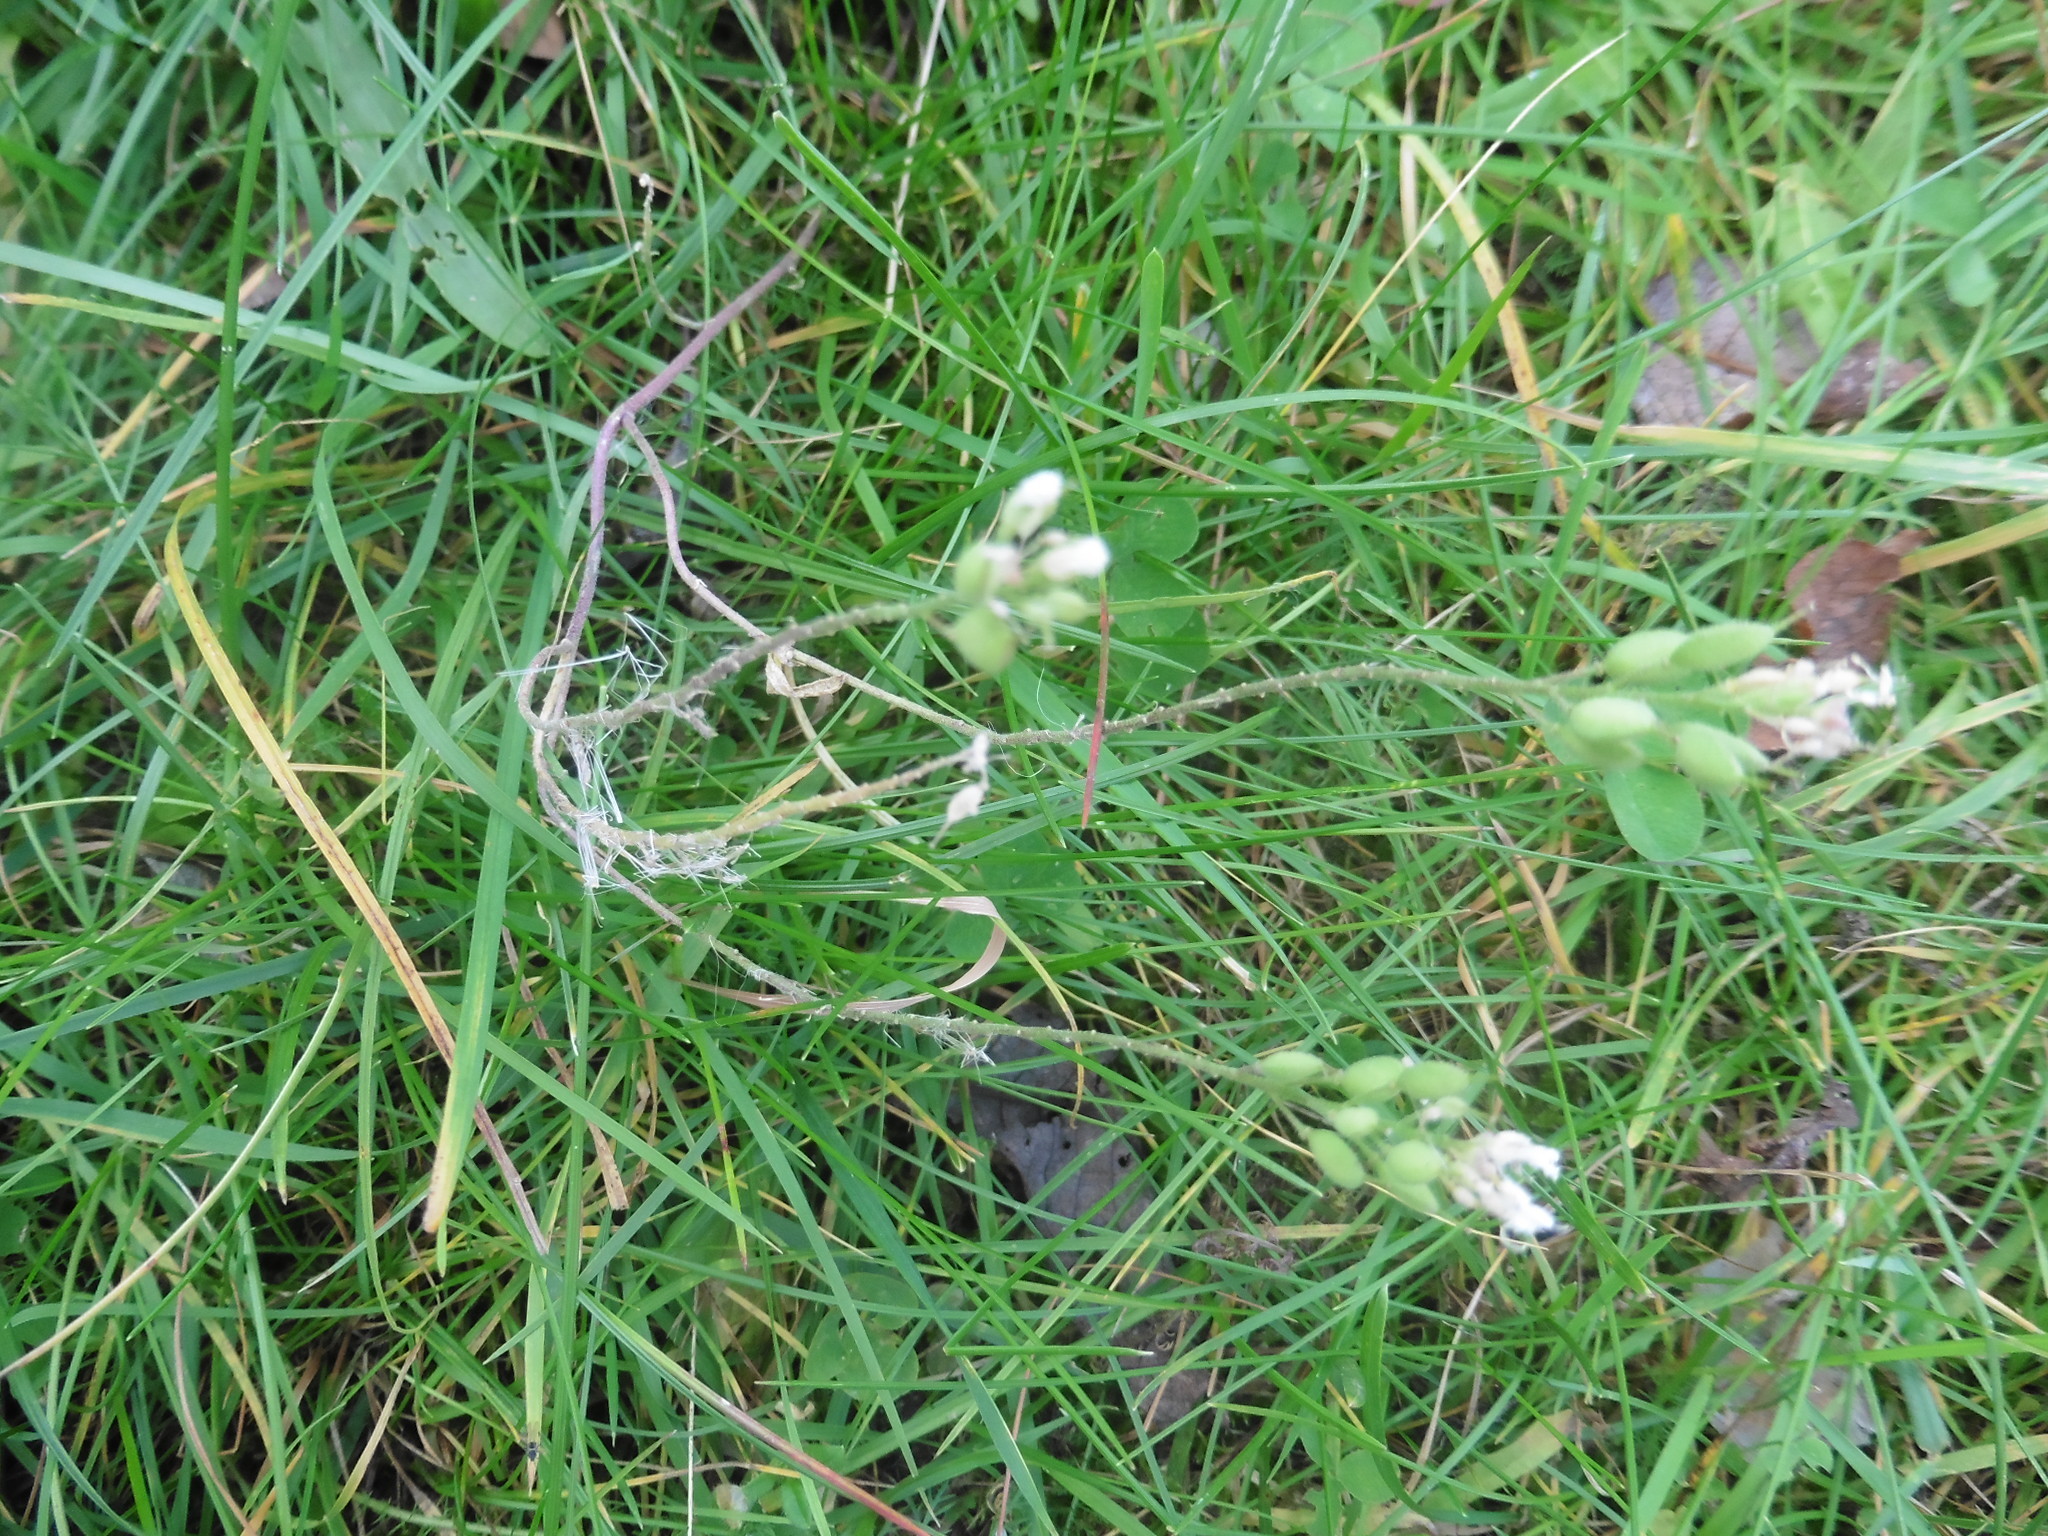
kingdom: Plantae
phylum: Tracheophyta
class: Magnoliopsida
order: Brassicales
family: Brassicaceae
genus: Berteroa
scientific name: Berteroa incana
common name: Hoary alison
